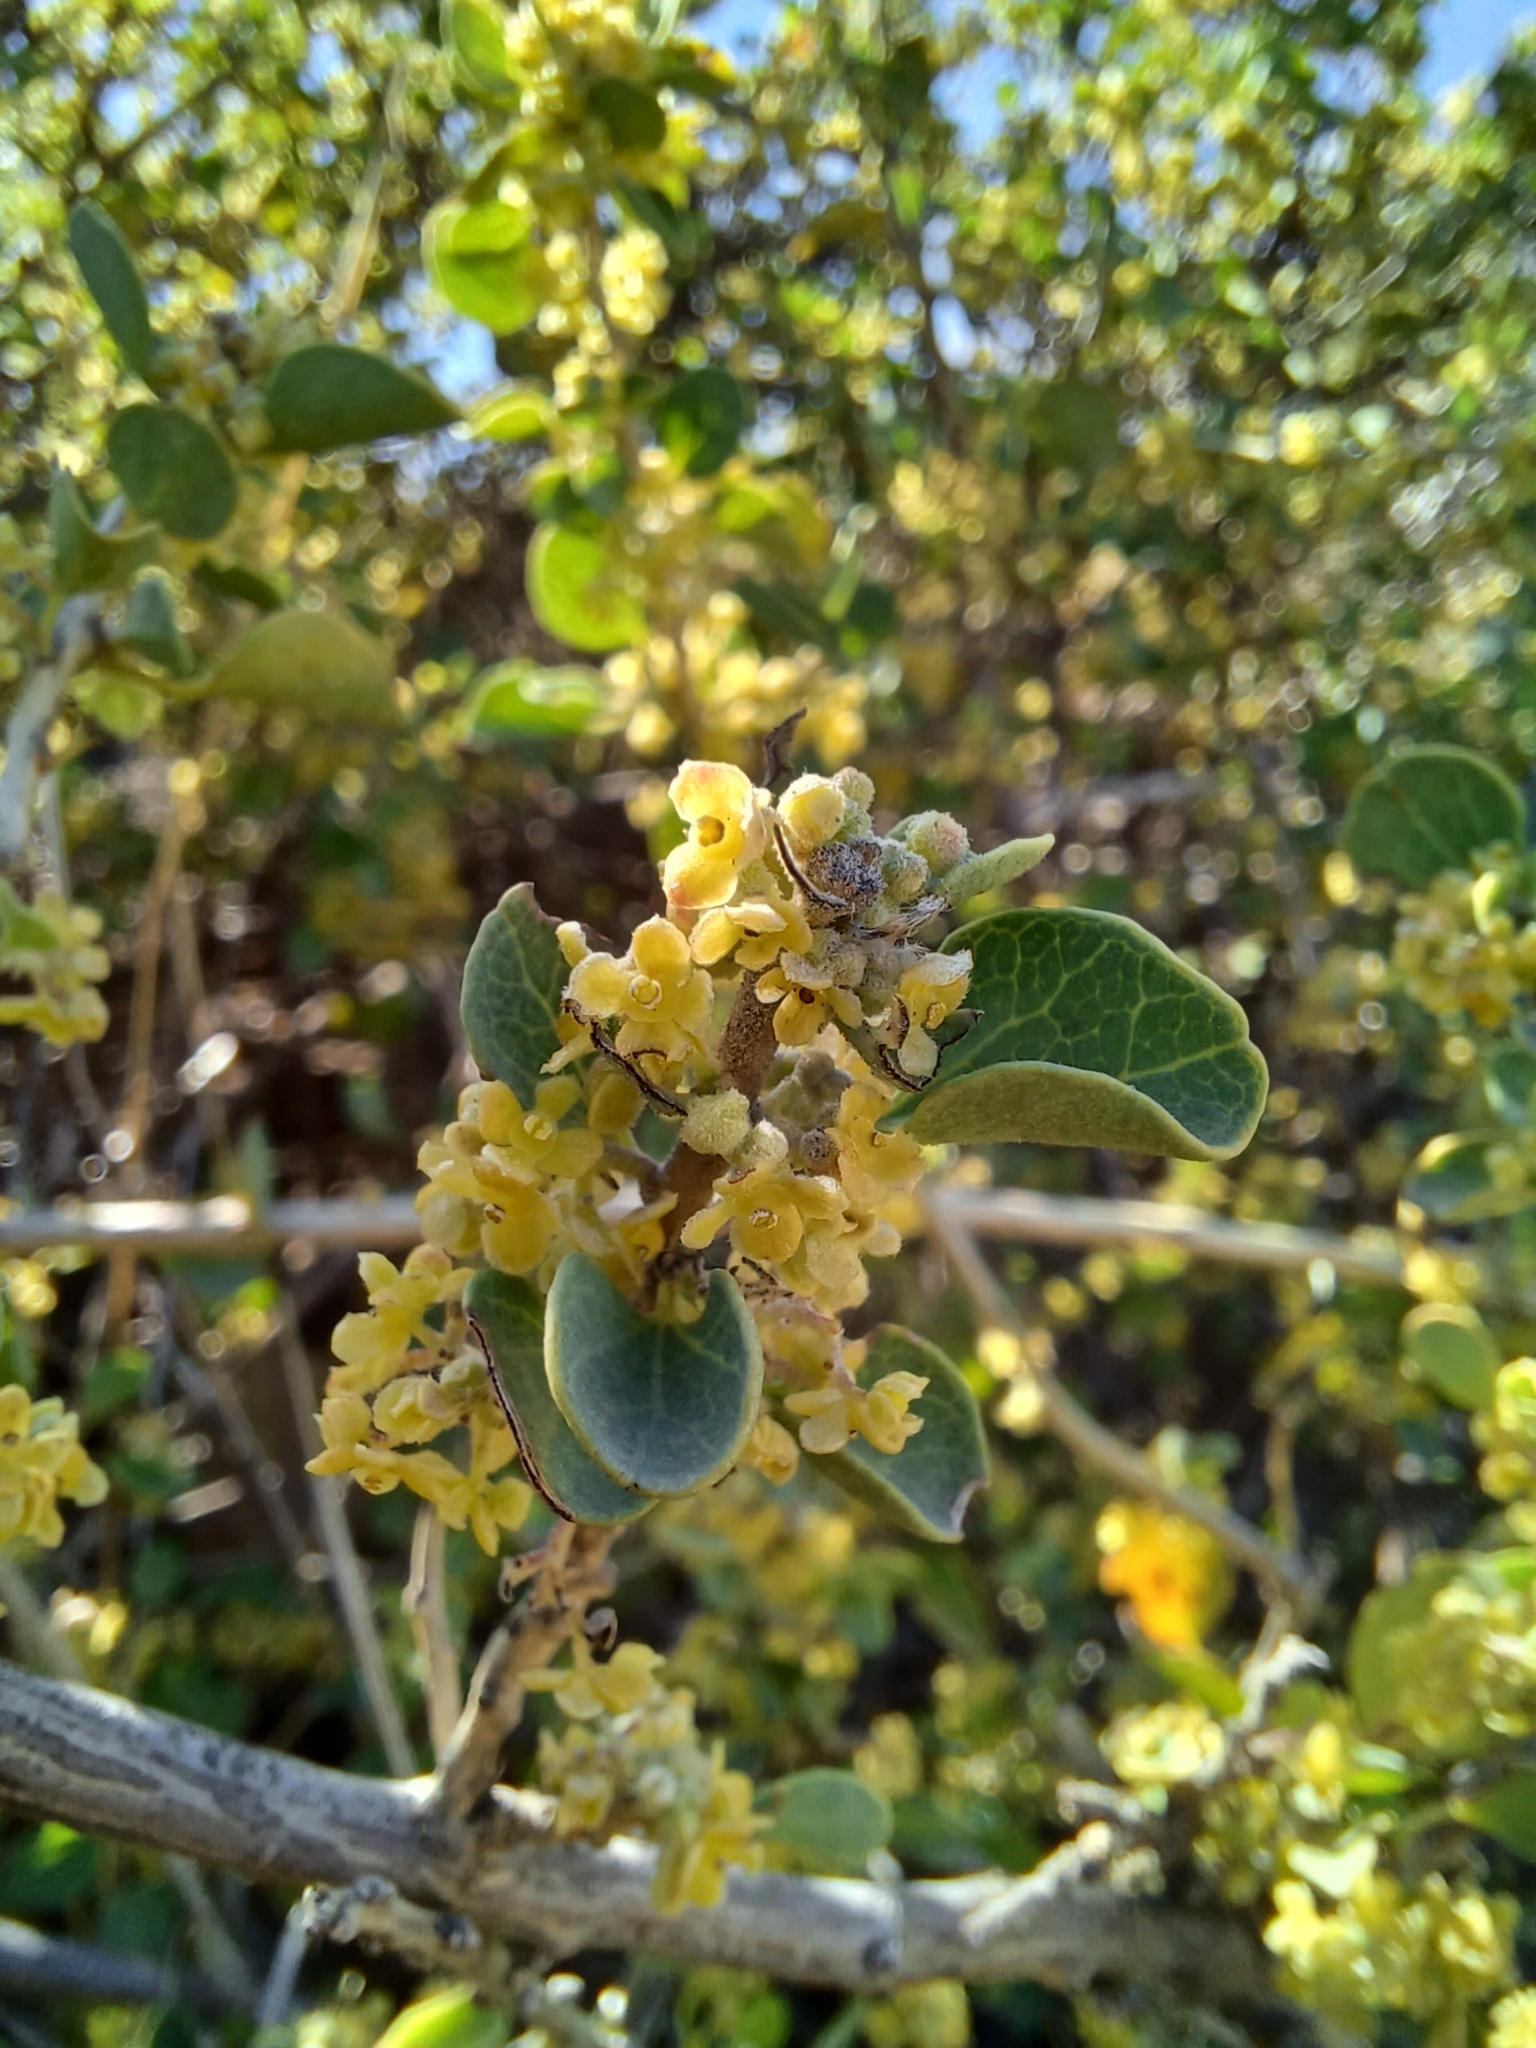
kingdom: Plantae
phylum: Tracheophyta
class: Magnoliopsida
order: Ranunculales
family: Menispermaceae
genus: Cissampelos
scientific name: Cissampelos capensis
